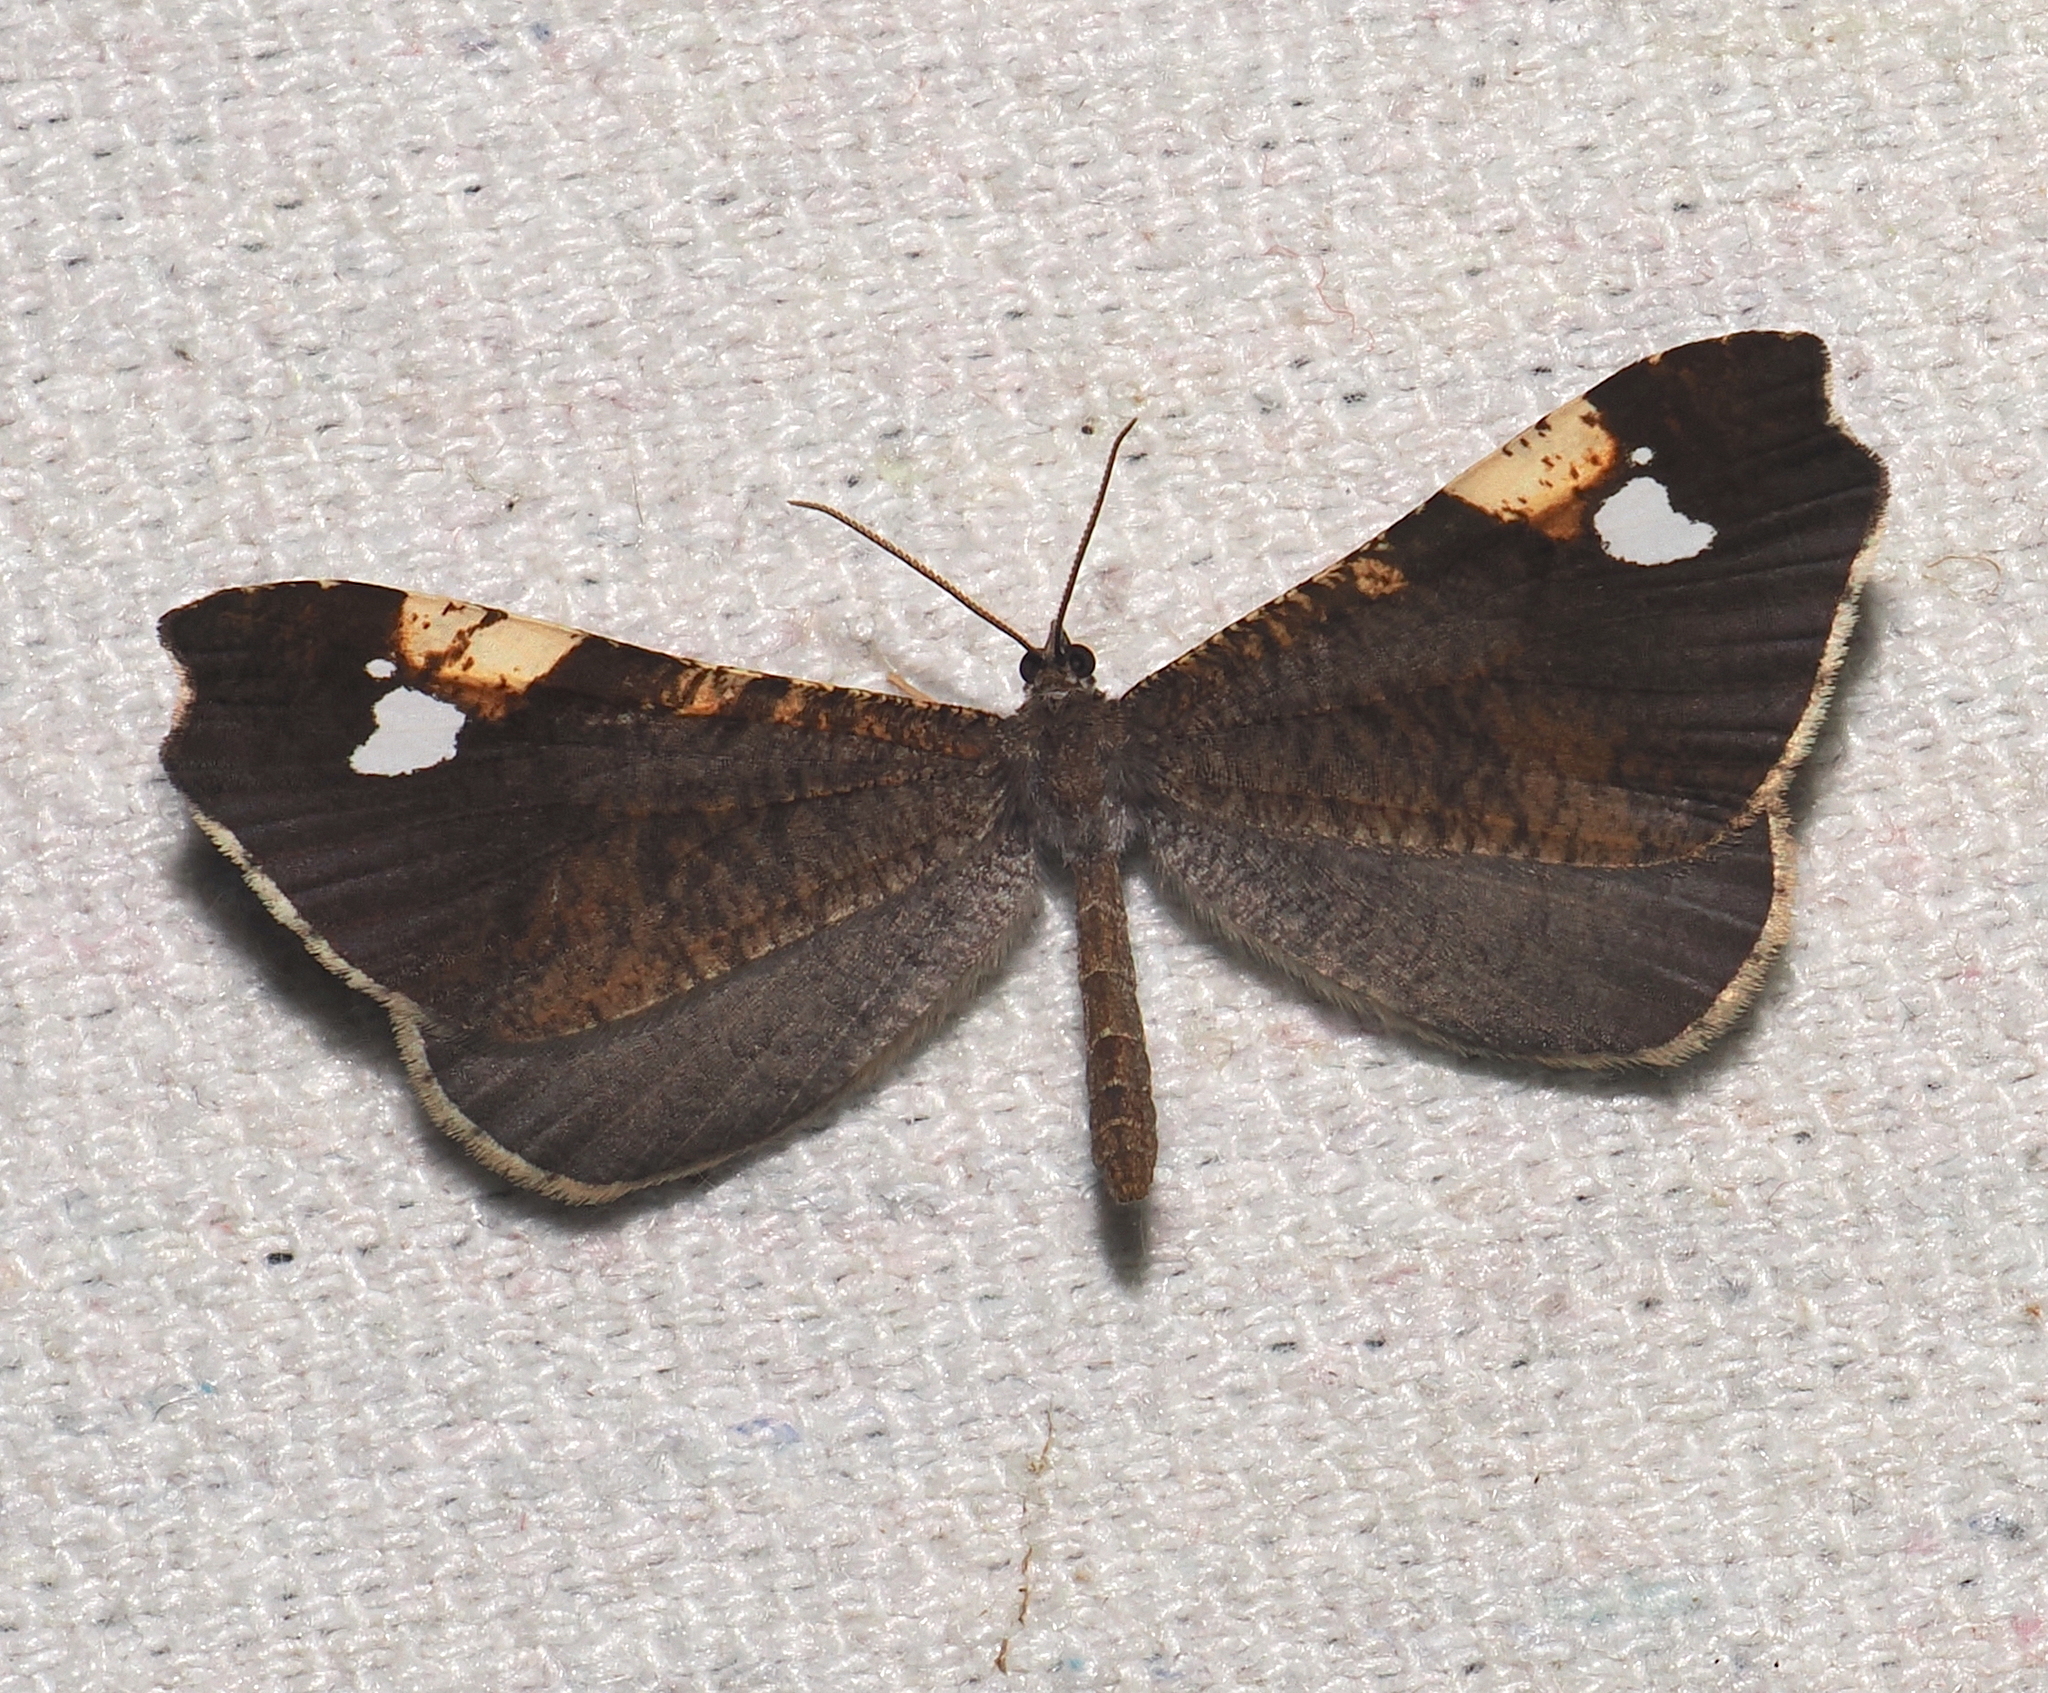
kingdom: Animalia
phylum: Arthropoda
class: Insecta
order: Lepidoptera
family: Hedylidae
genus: Macrosoma
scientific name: Macrosoma subornata
